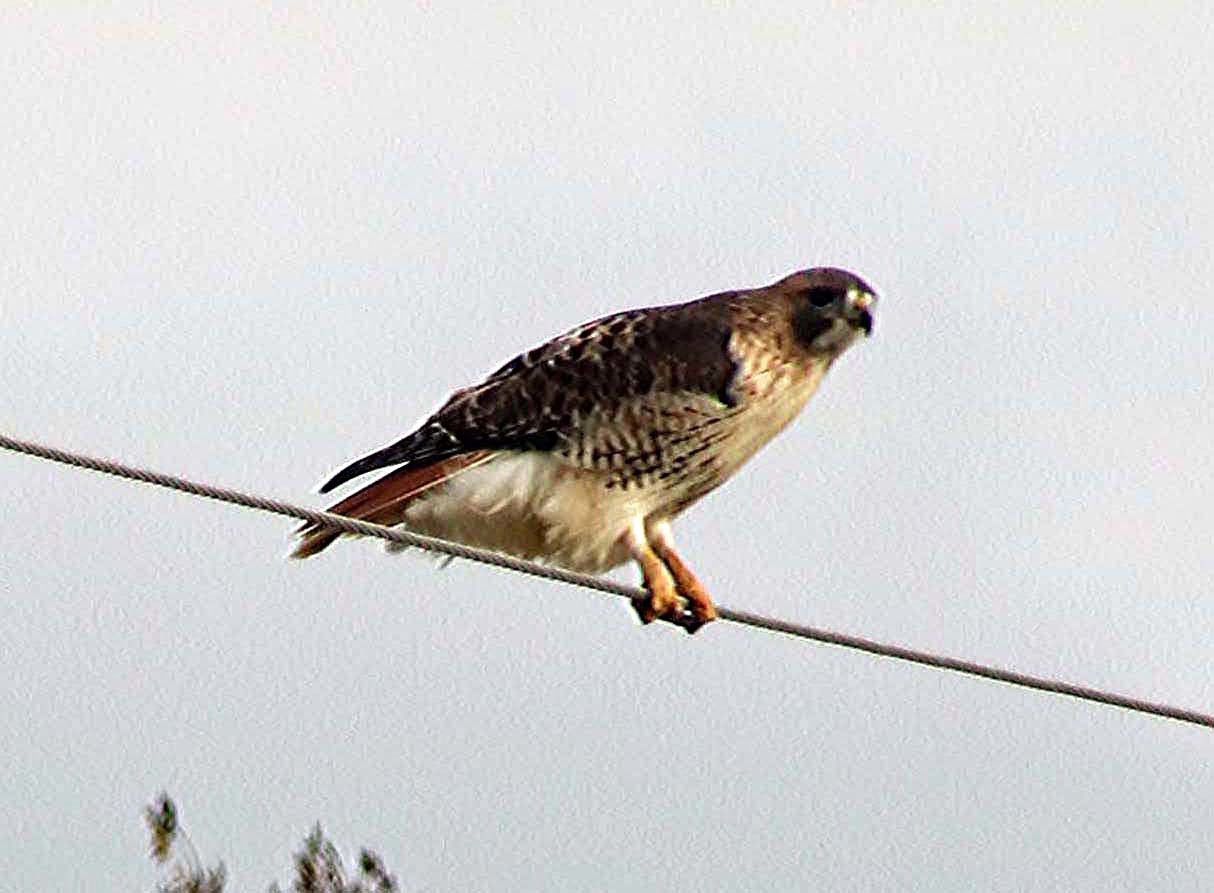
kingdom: Animalia
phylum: Chordata
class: Aves
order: Accipitriformes
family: Accipitridae
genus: Buteo
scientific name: Buteo jamaicensis
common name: Red-tailed hawk
